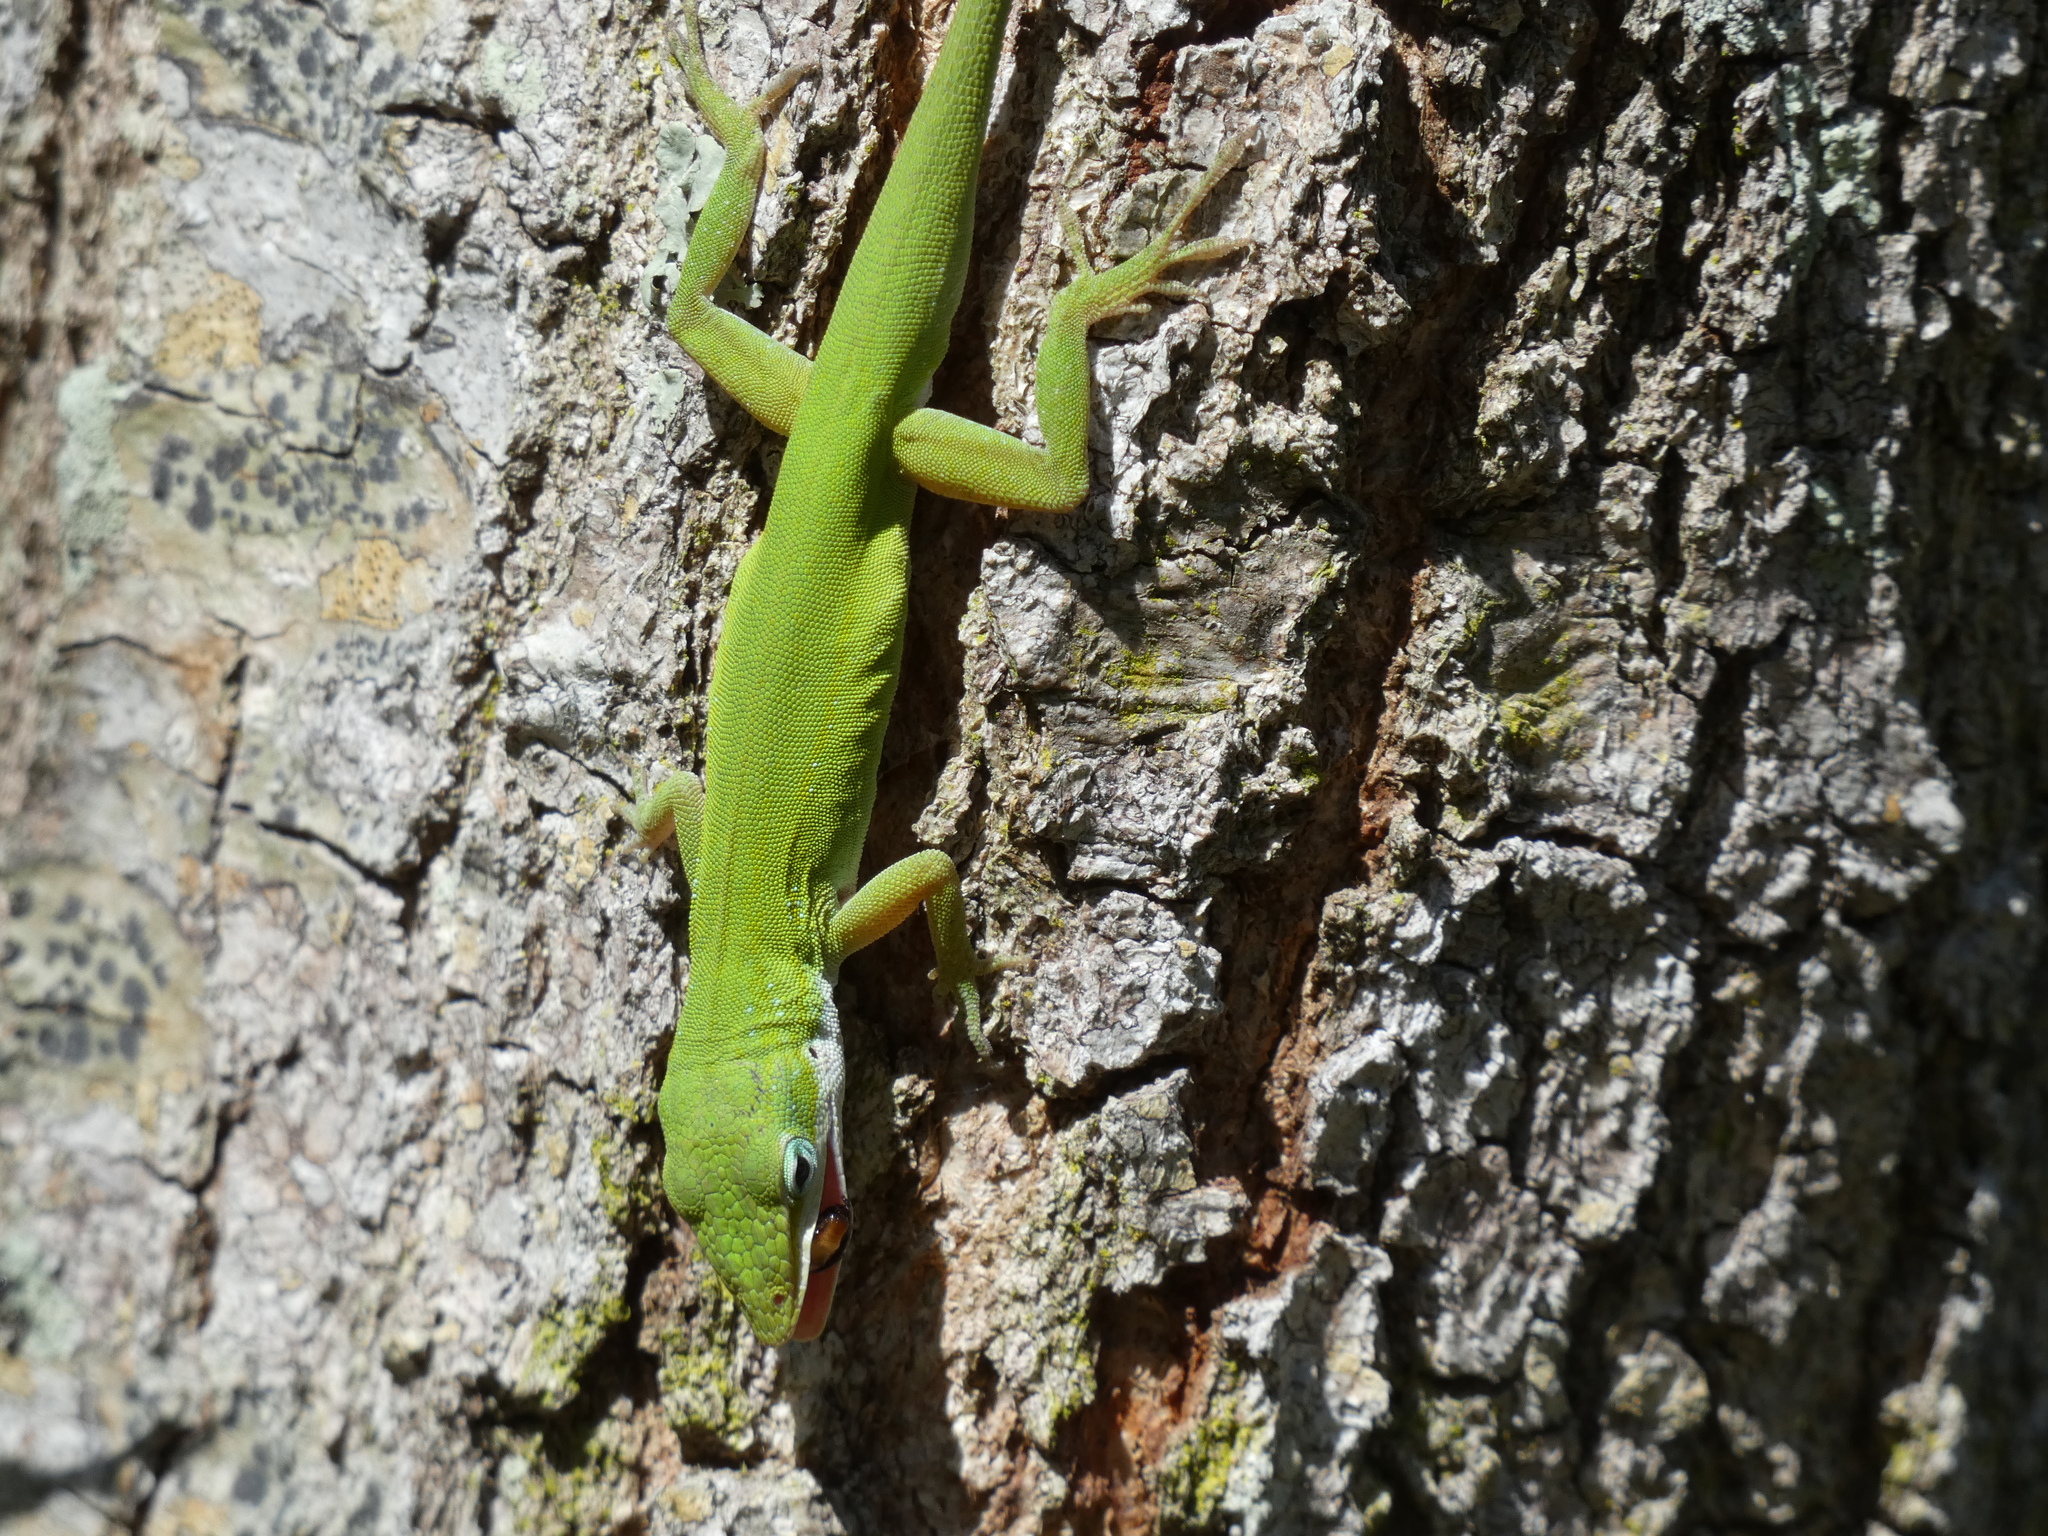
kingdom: Animalia
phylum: Chordata
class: Squamata
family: Dactyloidae
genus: Anolis
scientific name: Anolis carolinensis
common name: Green anole
